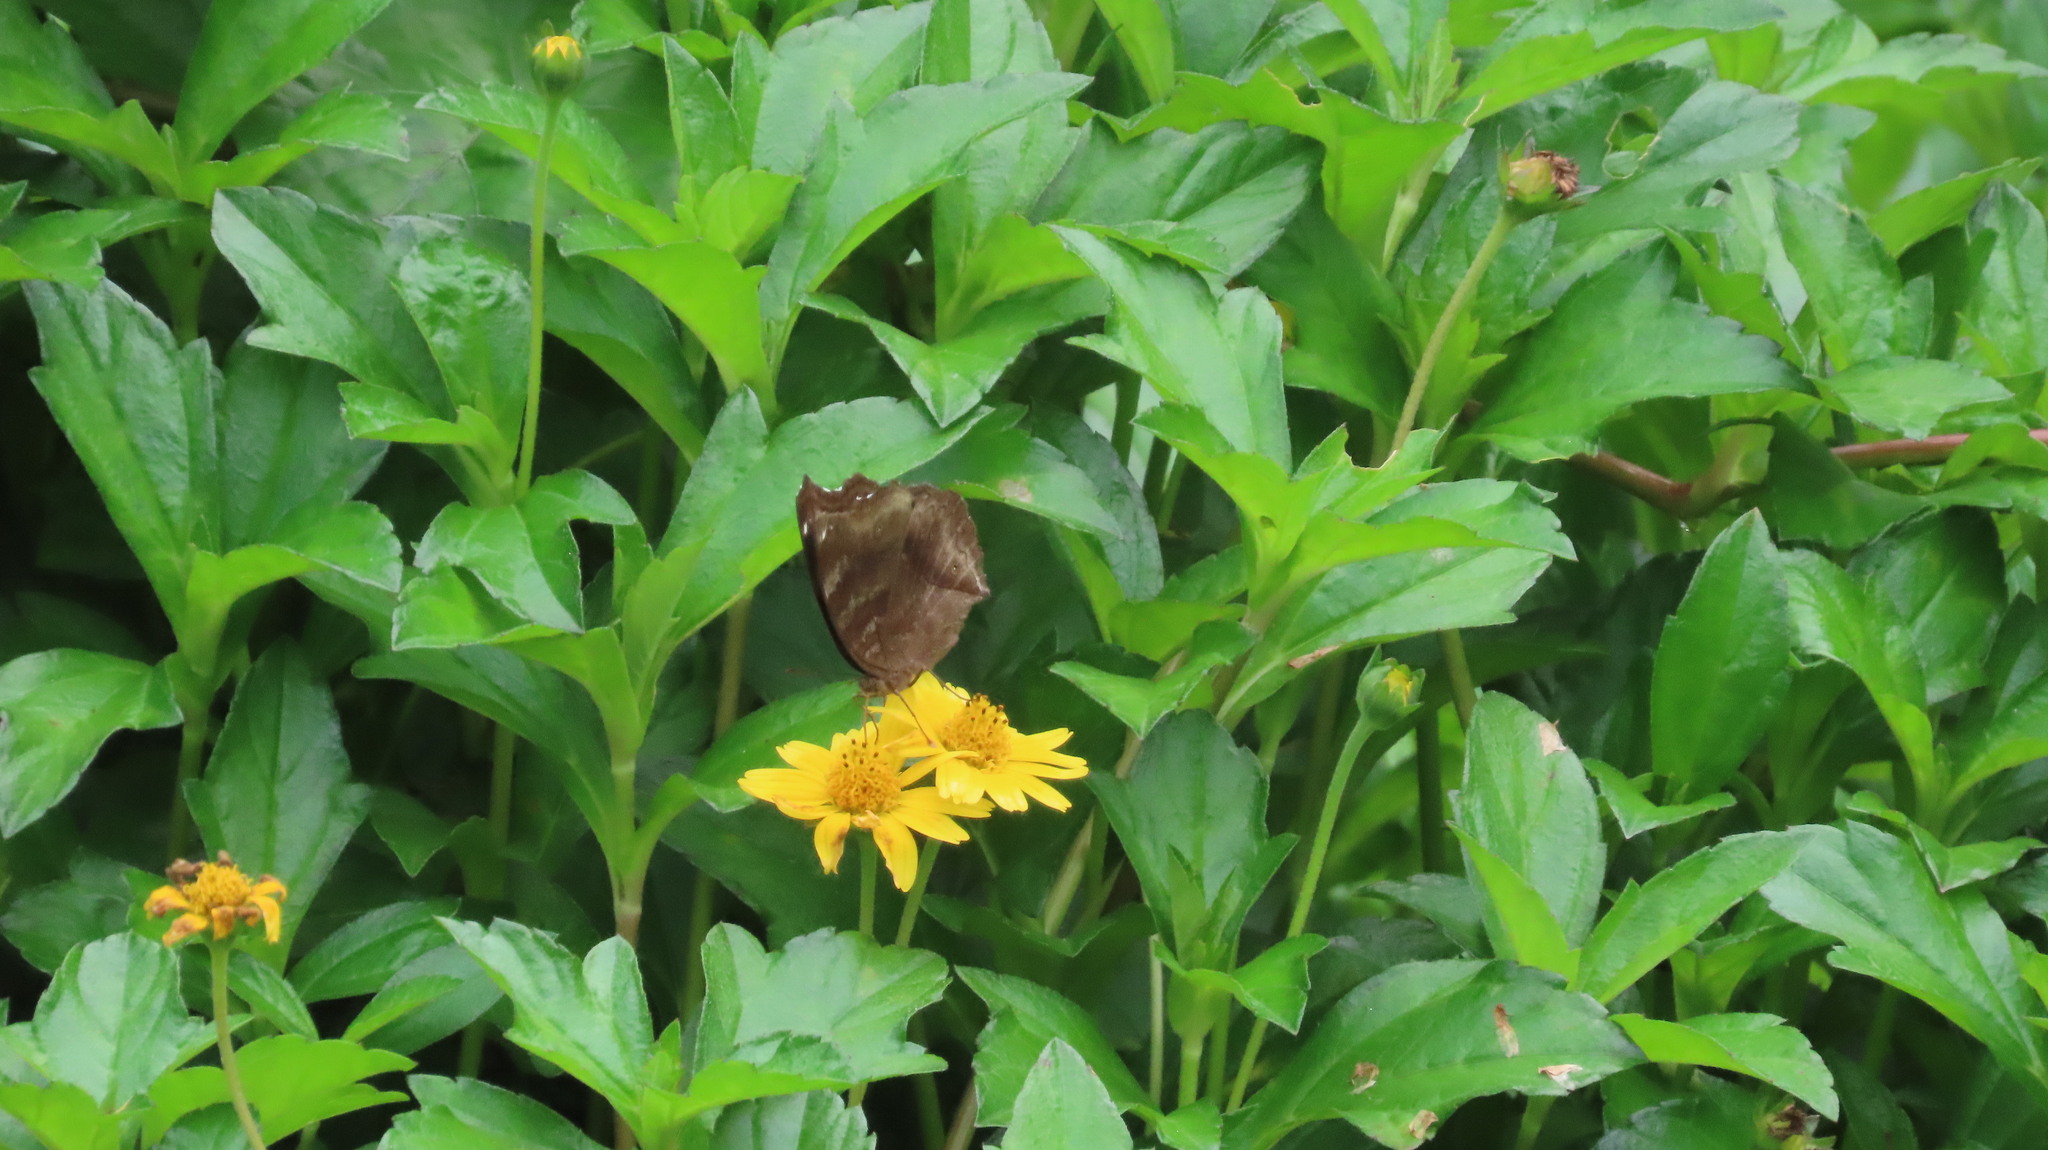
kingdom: Animalia
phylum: Arthropoda
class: Insecta
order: Lepidoptera
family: Nymphalidae
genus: Junonia
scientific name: Junonia iphita
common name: Chocolate pansy
